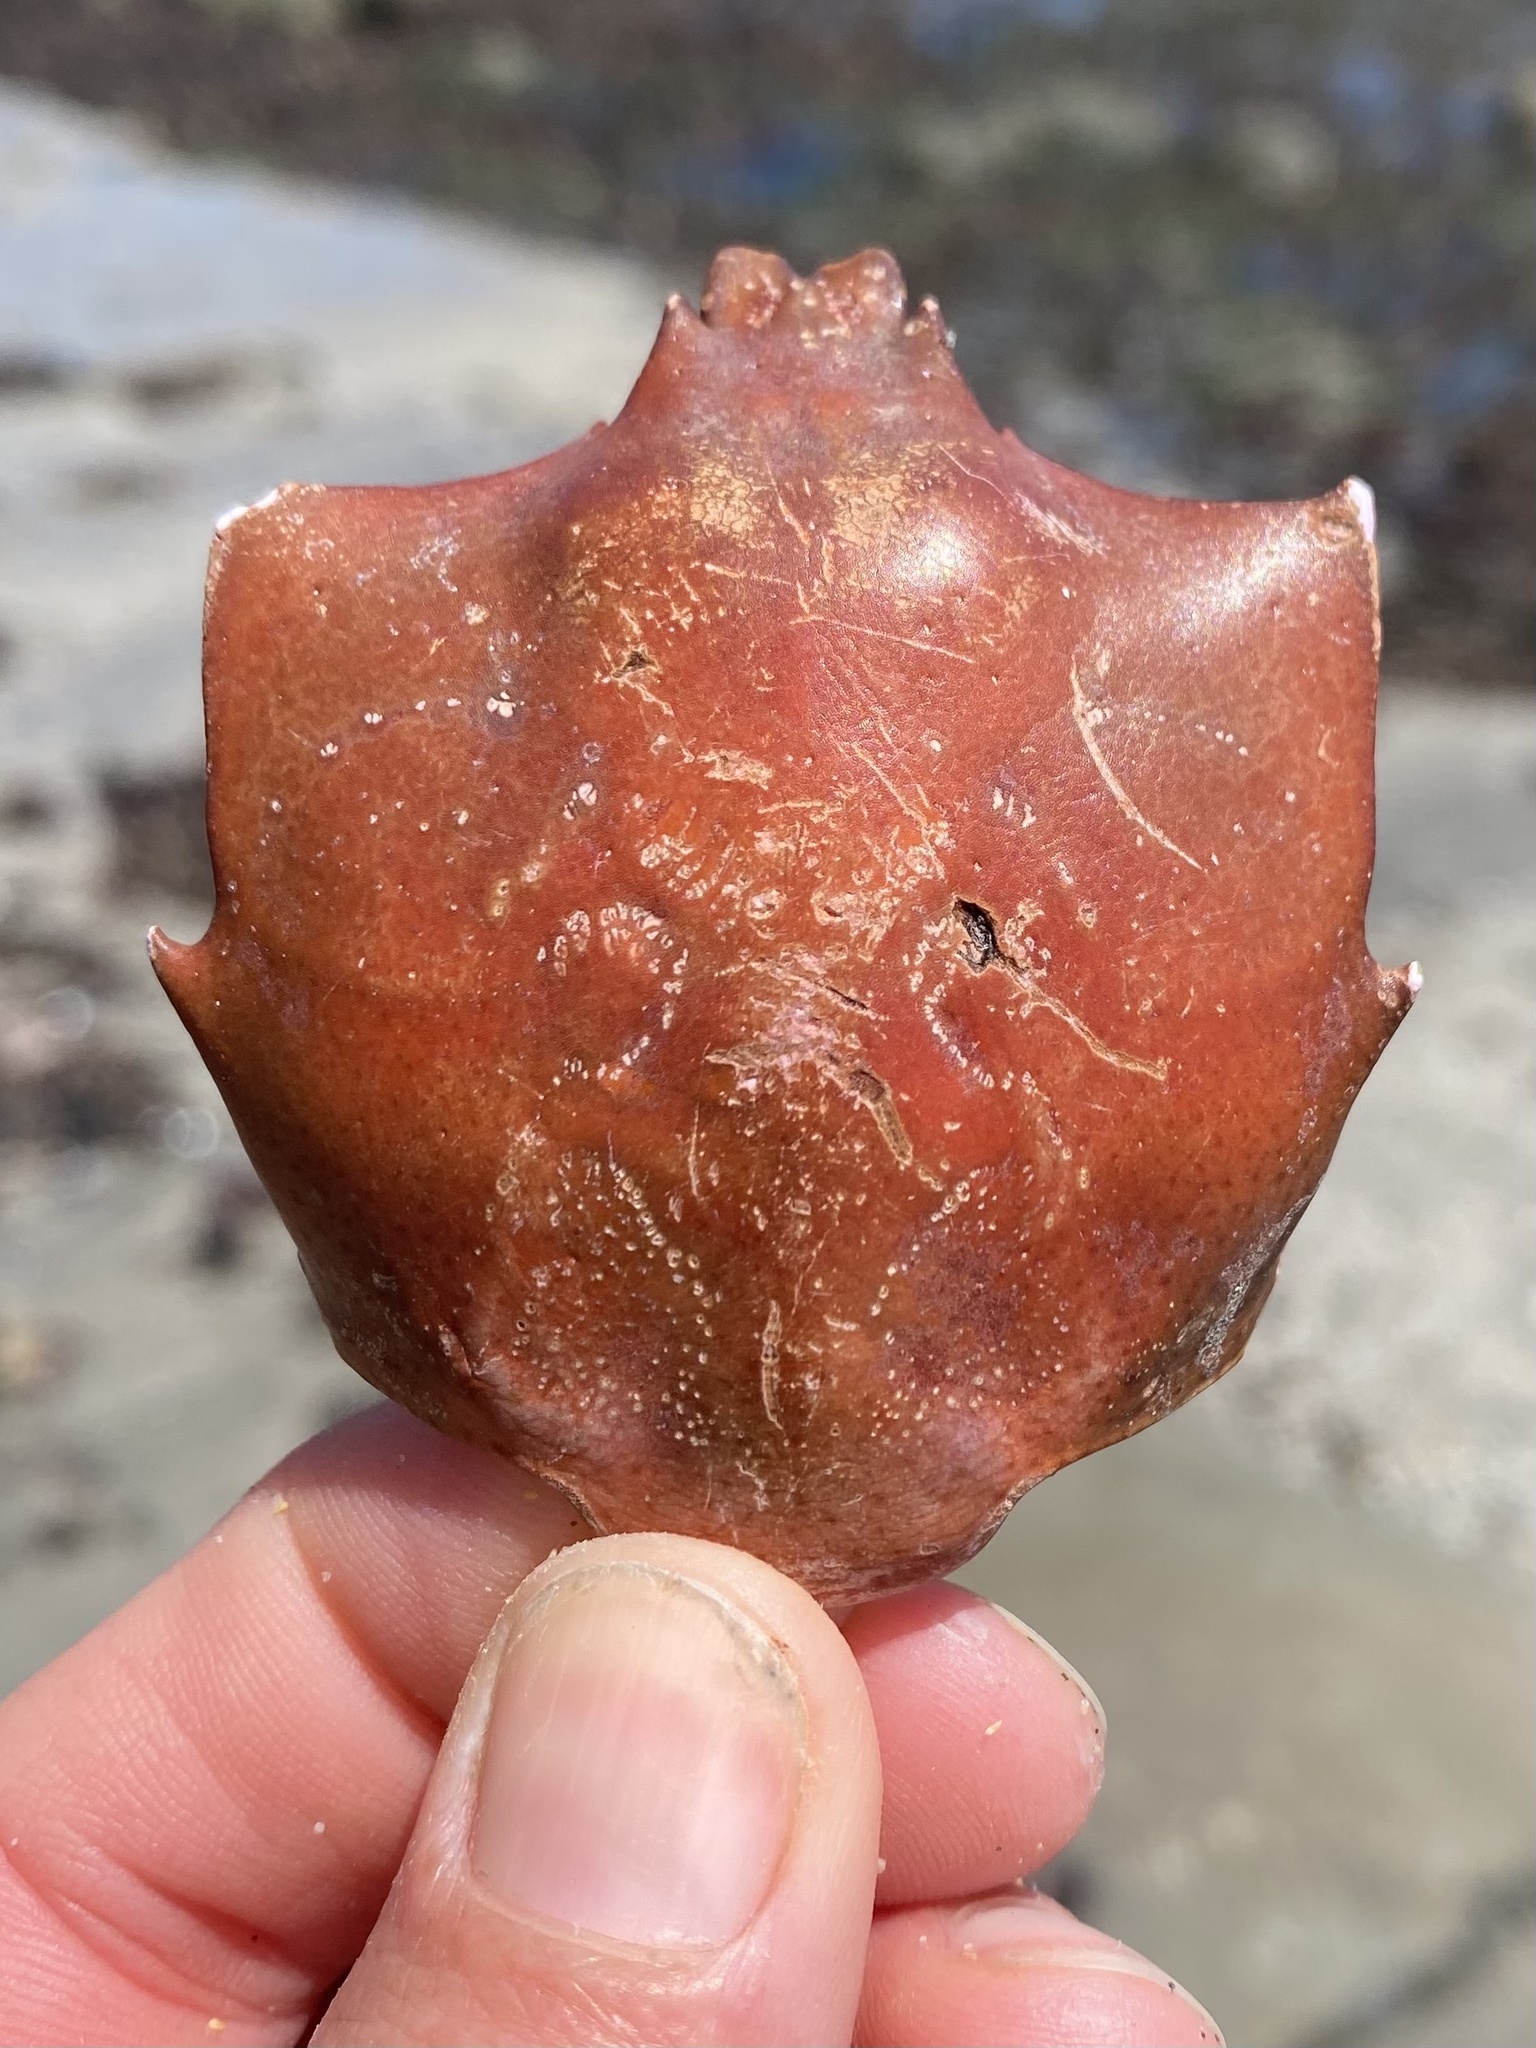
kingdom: Animalia
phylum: Arthropoda
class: Malacostraca
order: Decapoda
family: Epialtidae
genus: Pugettia
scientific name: Pugettia producta
